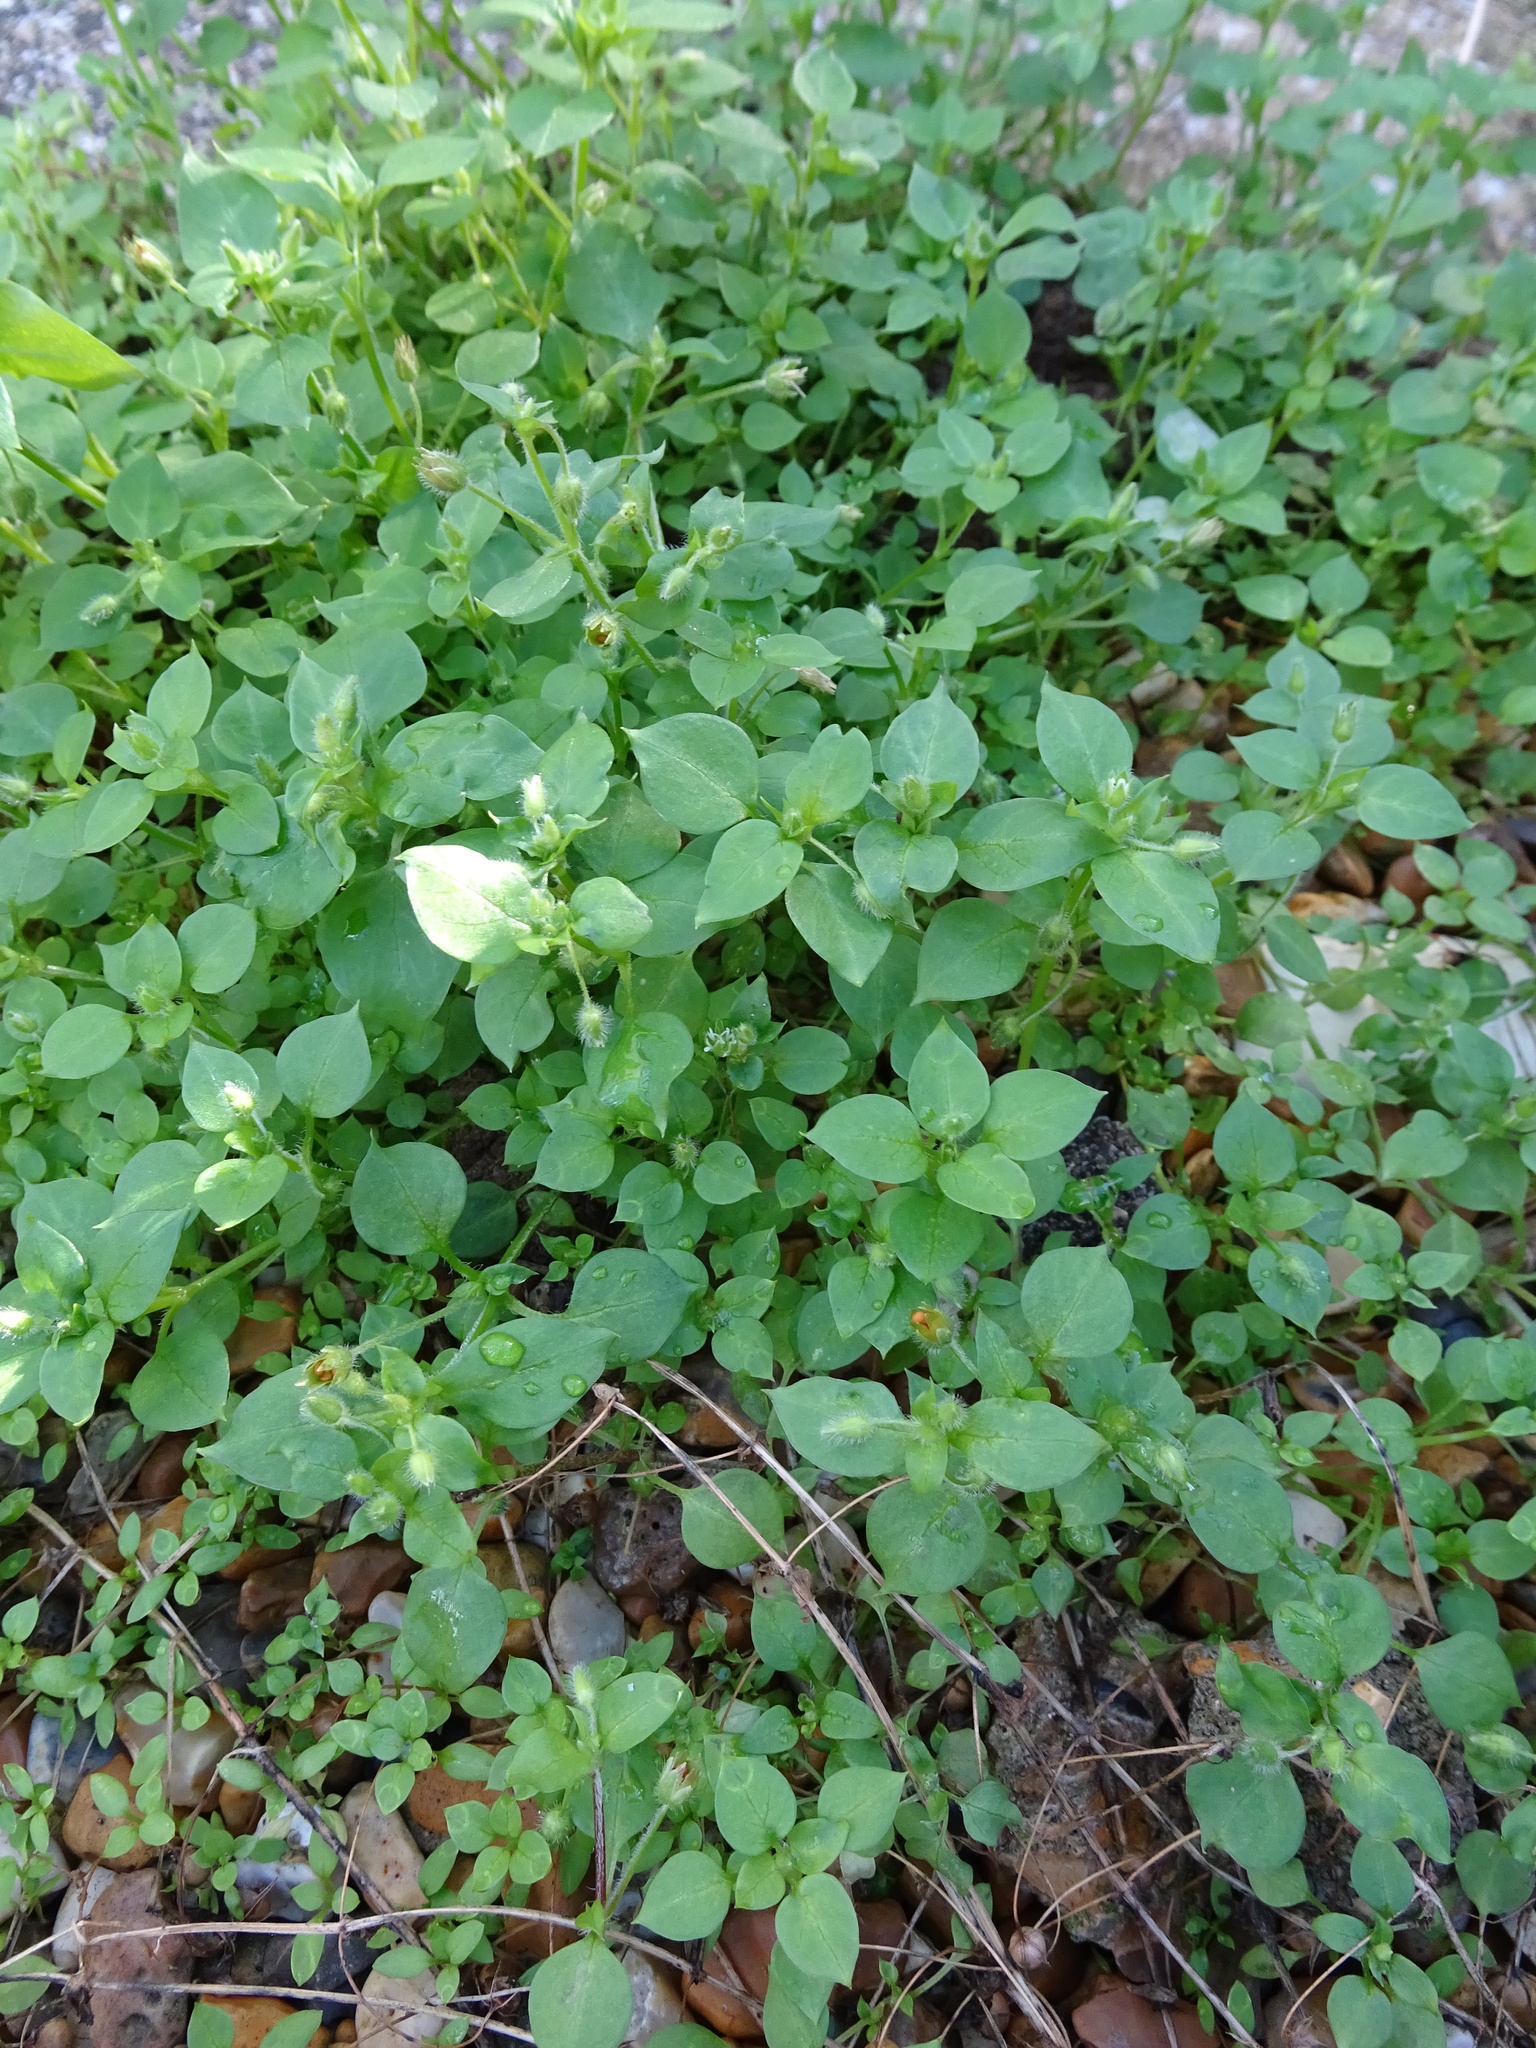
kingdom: Plantae
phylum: Tracheophyta
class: Magnoliopsida
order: Caryophyllales
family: Caryophyllaceae
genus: Stellaria
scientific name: Stellaria media
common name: Common chickweed
